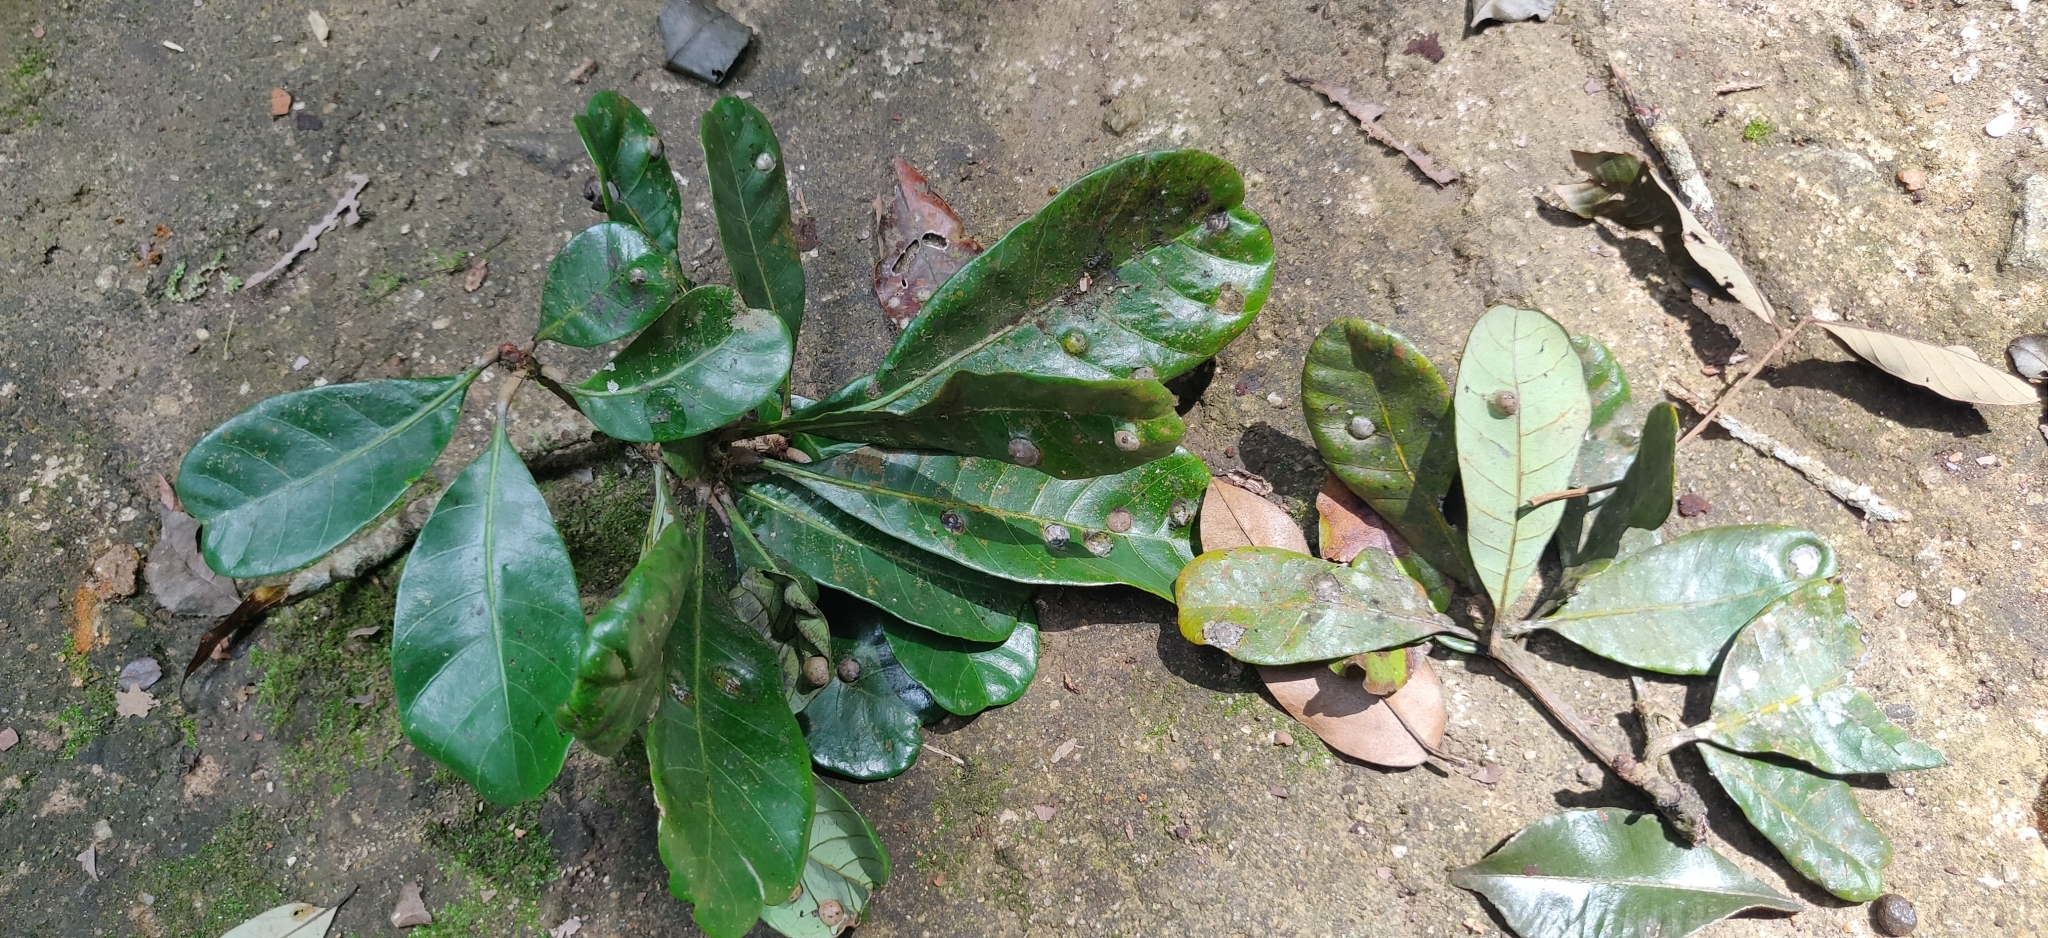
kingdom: Plantae
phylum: Tracheophyta
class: Magnoliopsida
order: Sapindales
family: Anacardiaceae
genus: Holigarna
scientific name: Holigarna nigra
